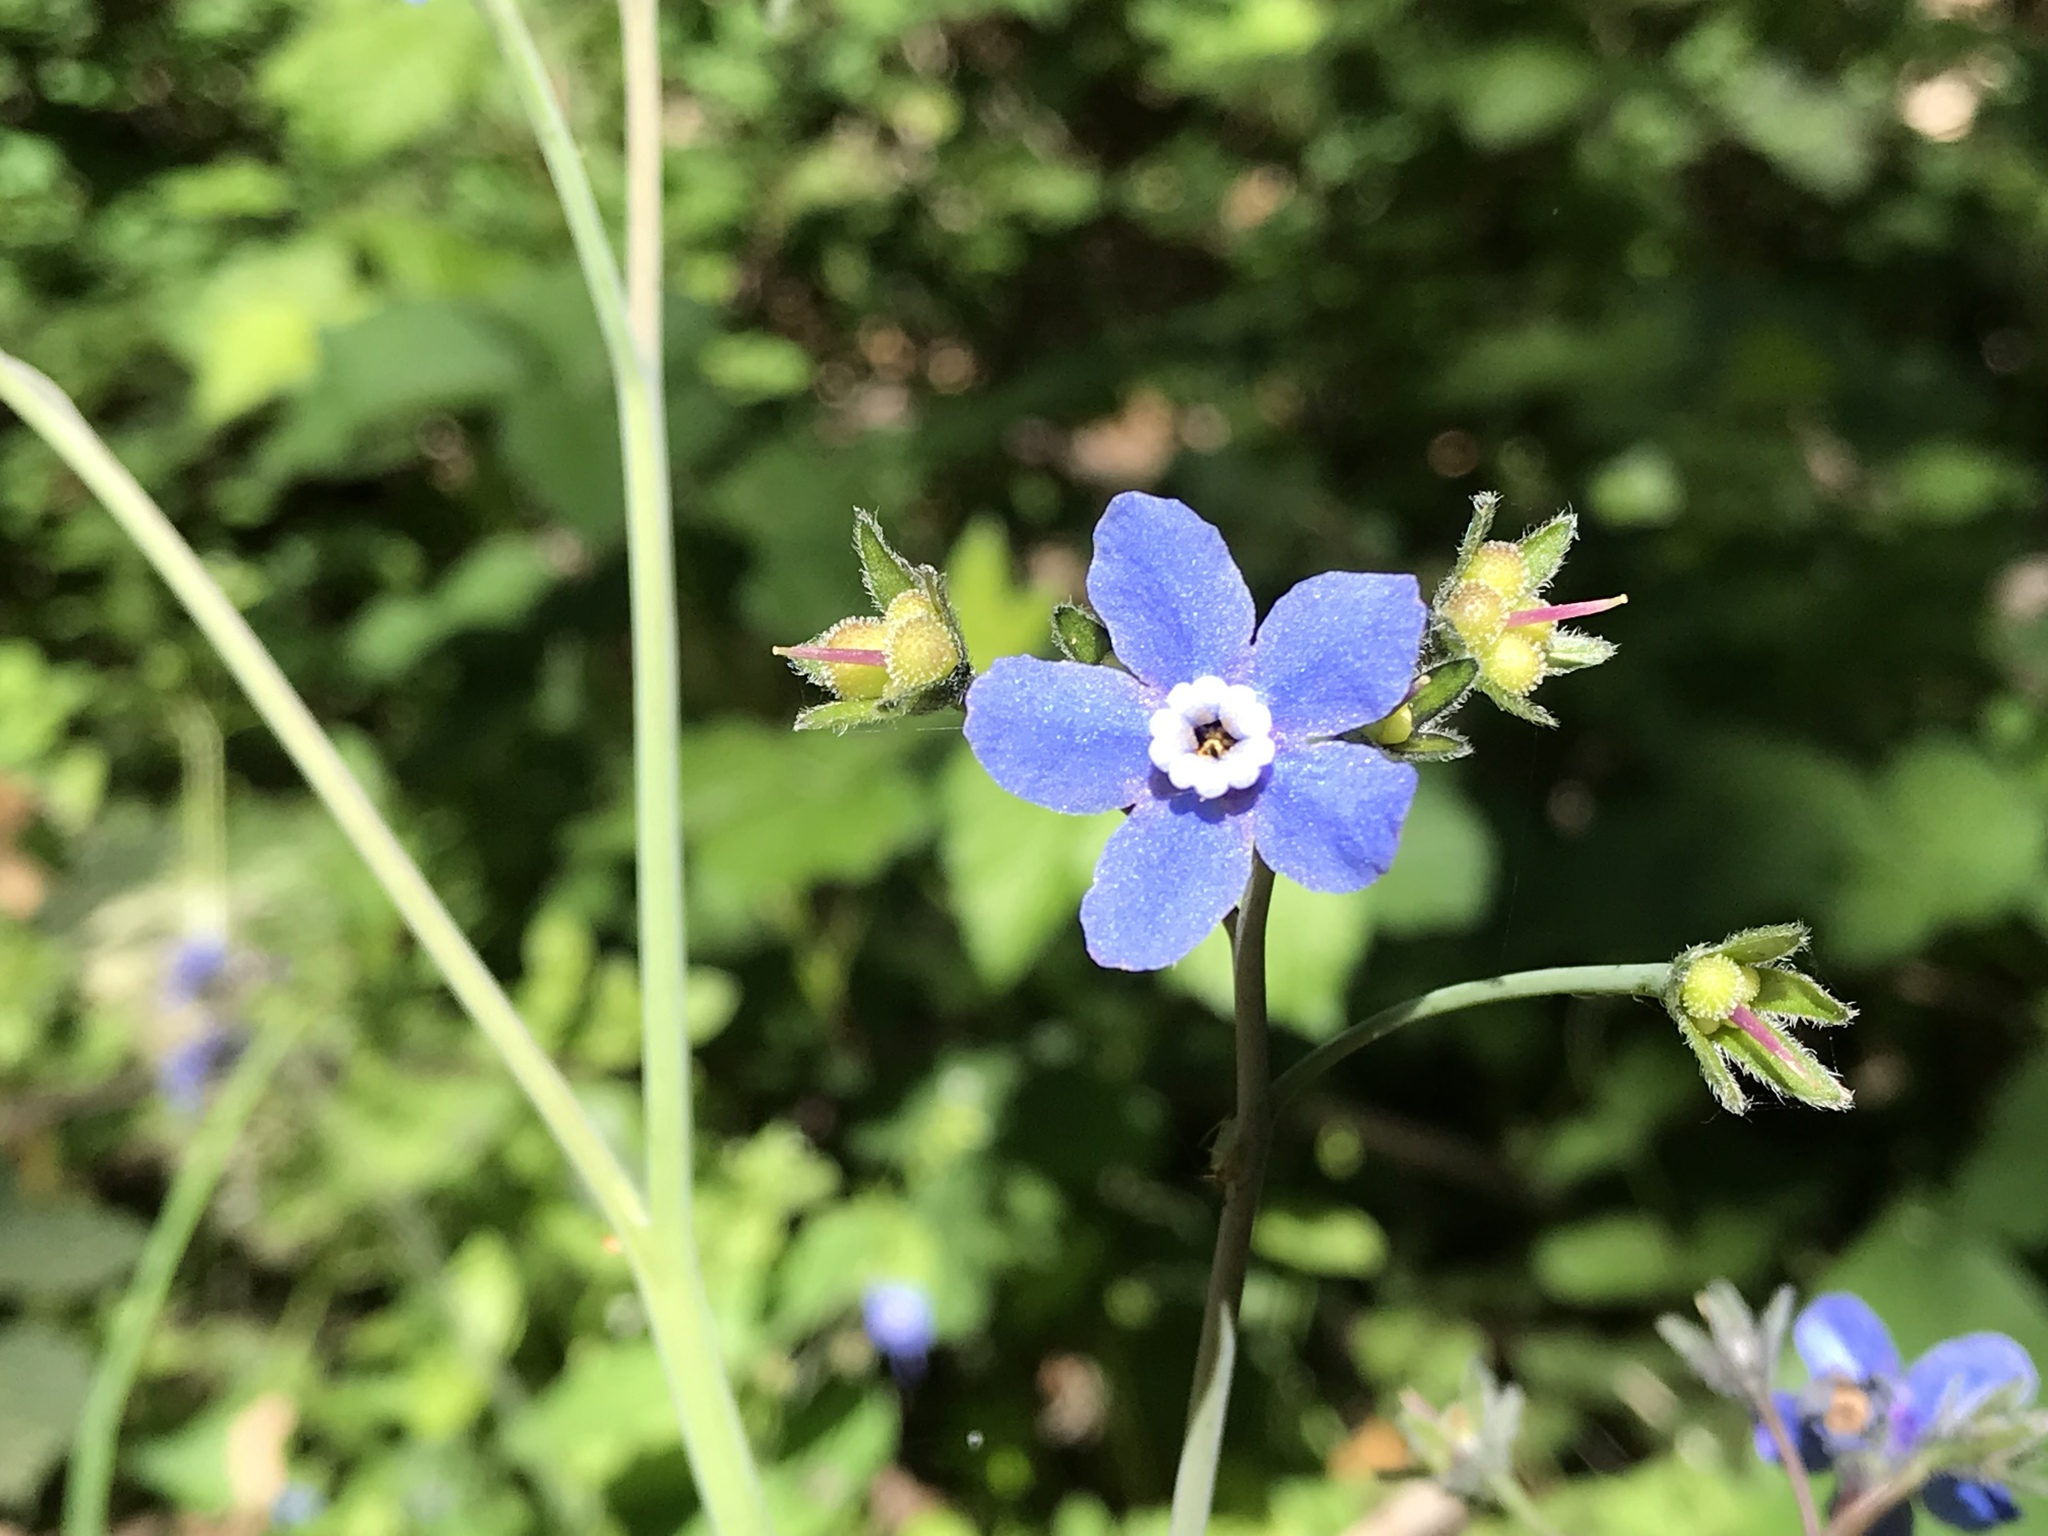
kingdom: Plantae
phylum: Tracheophyta
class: Magnoliopsida
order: Boraginales
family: Boraginaceae
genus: Adelinia
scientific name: Adelinia grande
